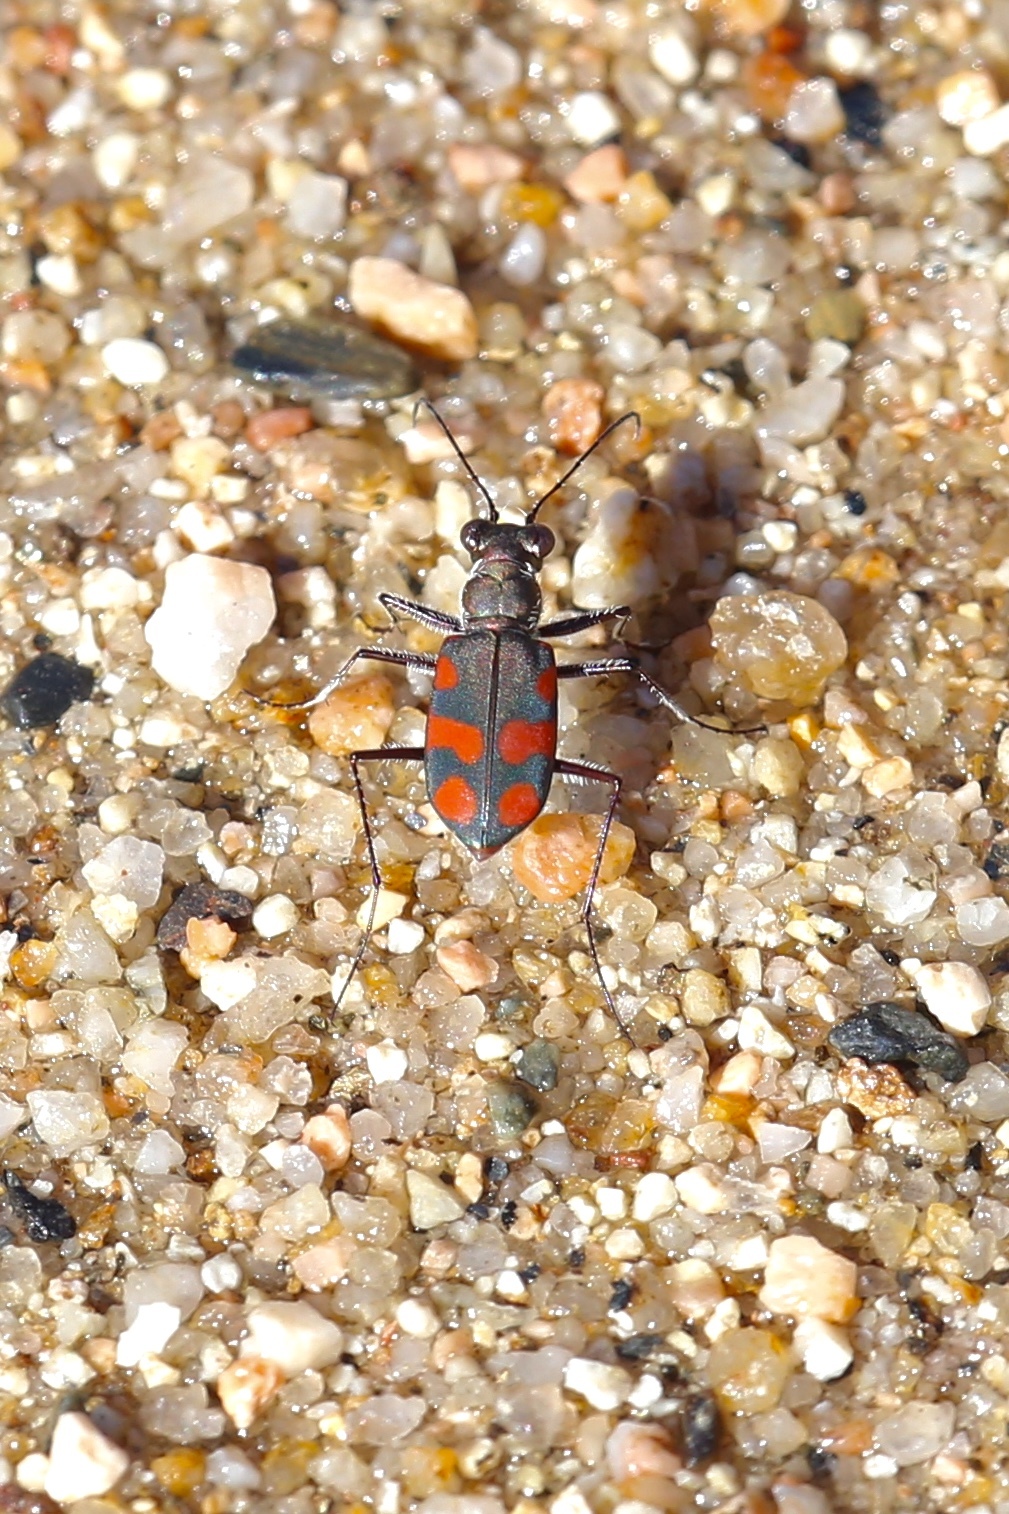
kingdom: Animalia
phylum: Arthropoda
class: Insecta
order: Coleoptera
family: Carabidae
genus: Cicindela
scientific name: Cicindela sommeri
